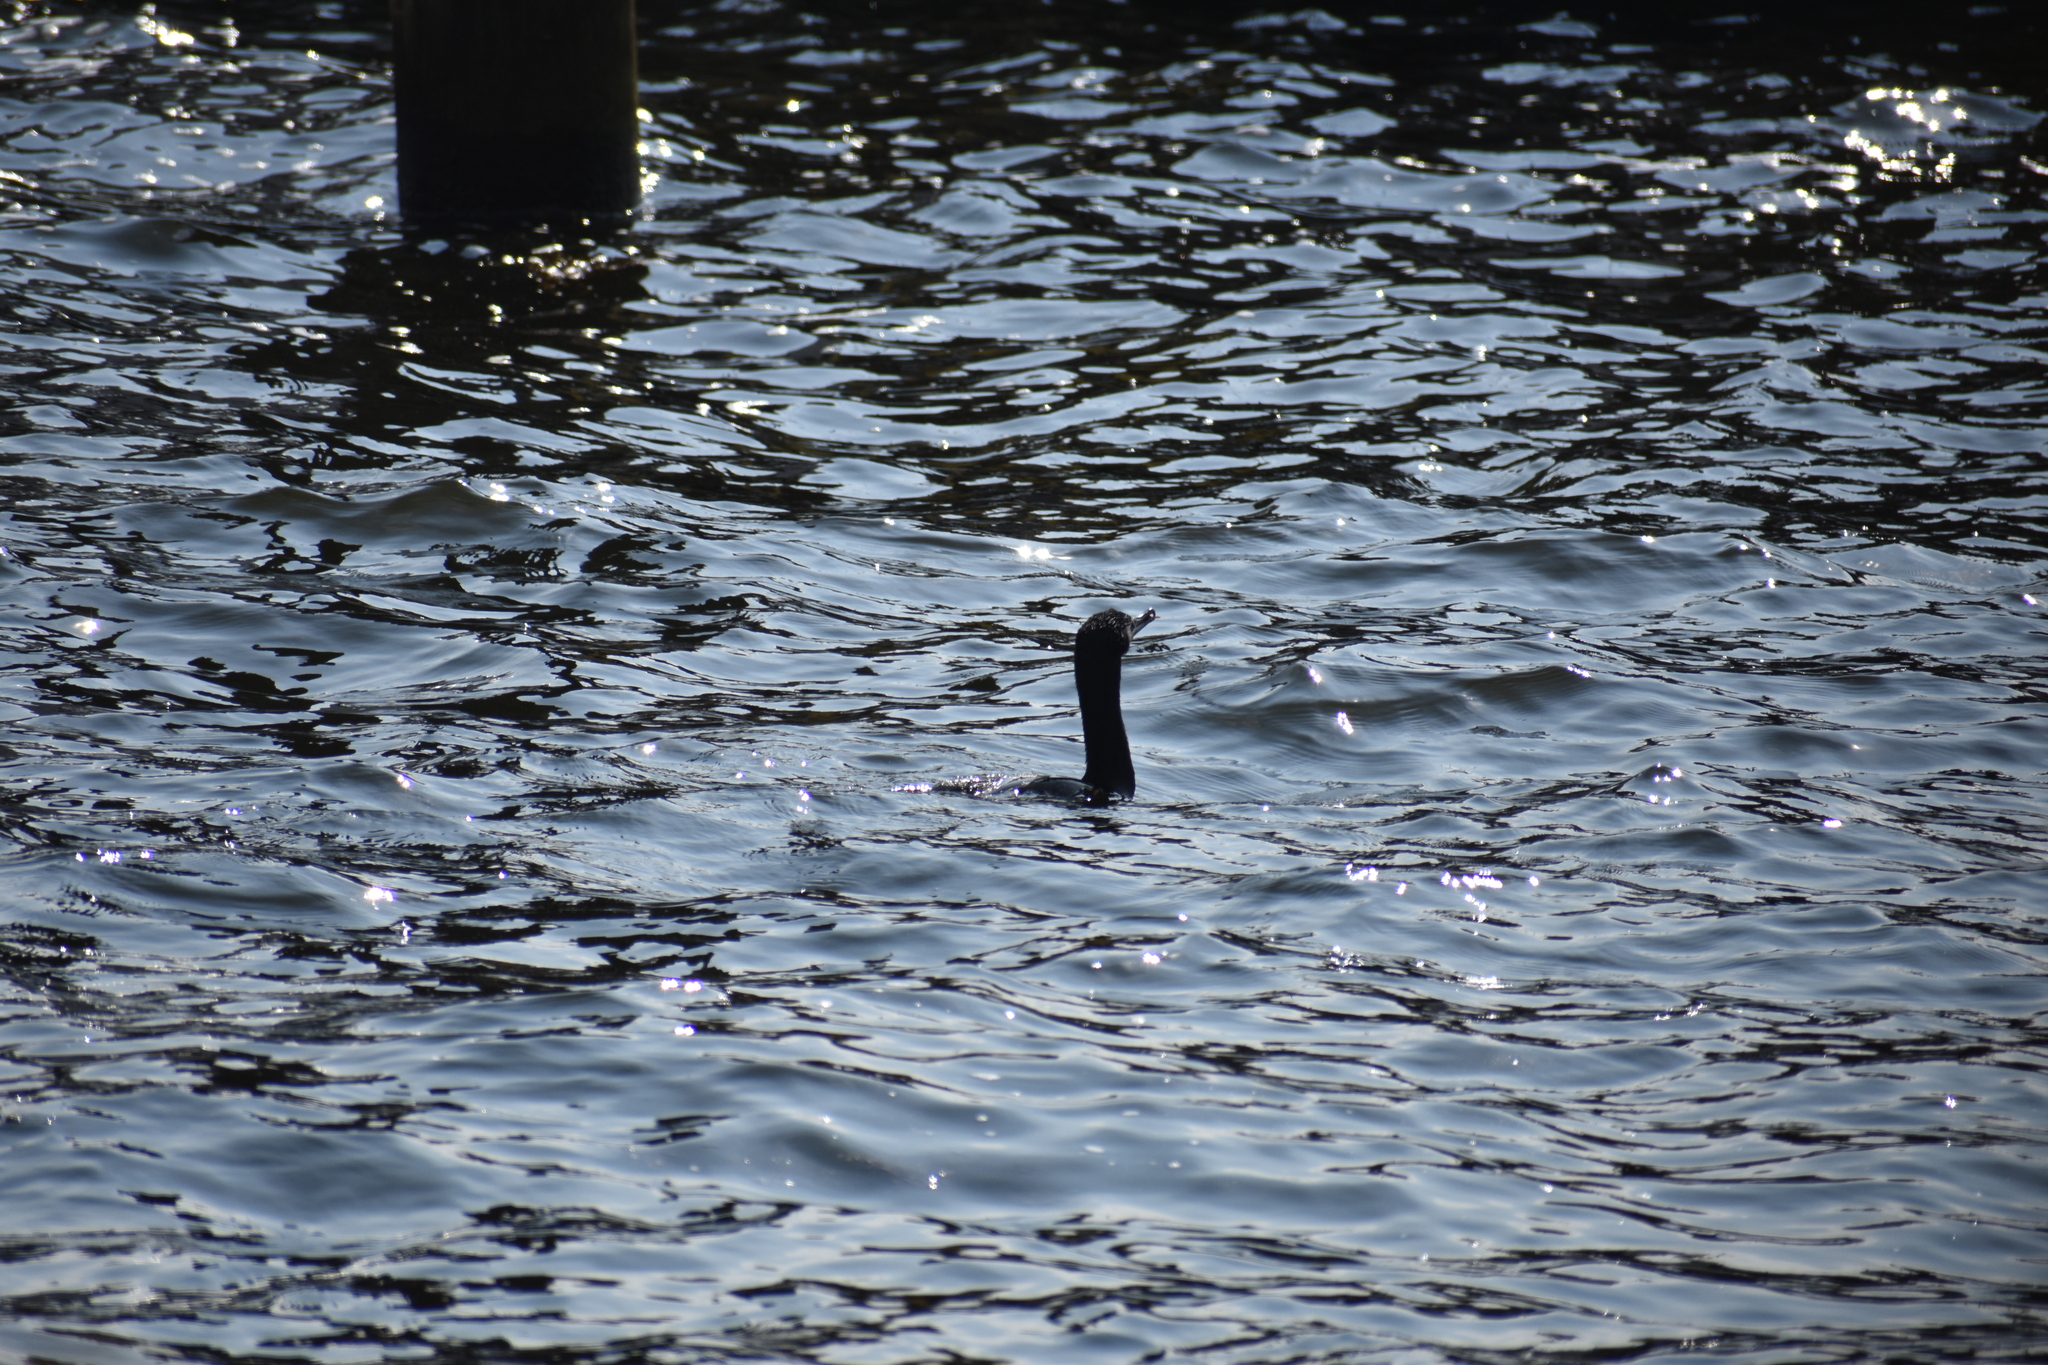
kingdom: Animalia
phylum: Chordata
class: Aves
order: Suliformes
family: Phalacrocoracidae
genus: Phalacrocorax
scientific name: Phalacrocorax auritus
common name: Double-crested cormorant
